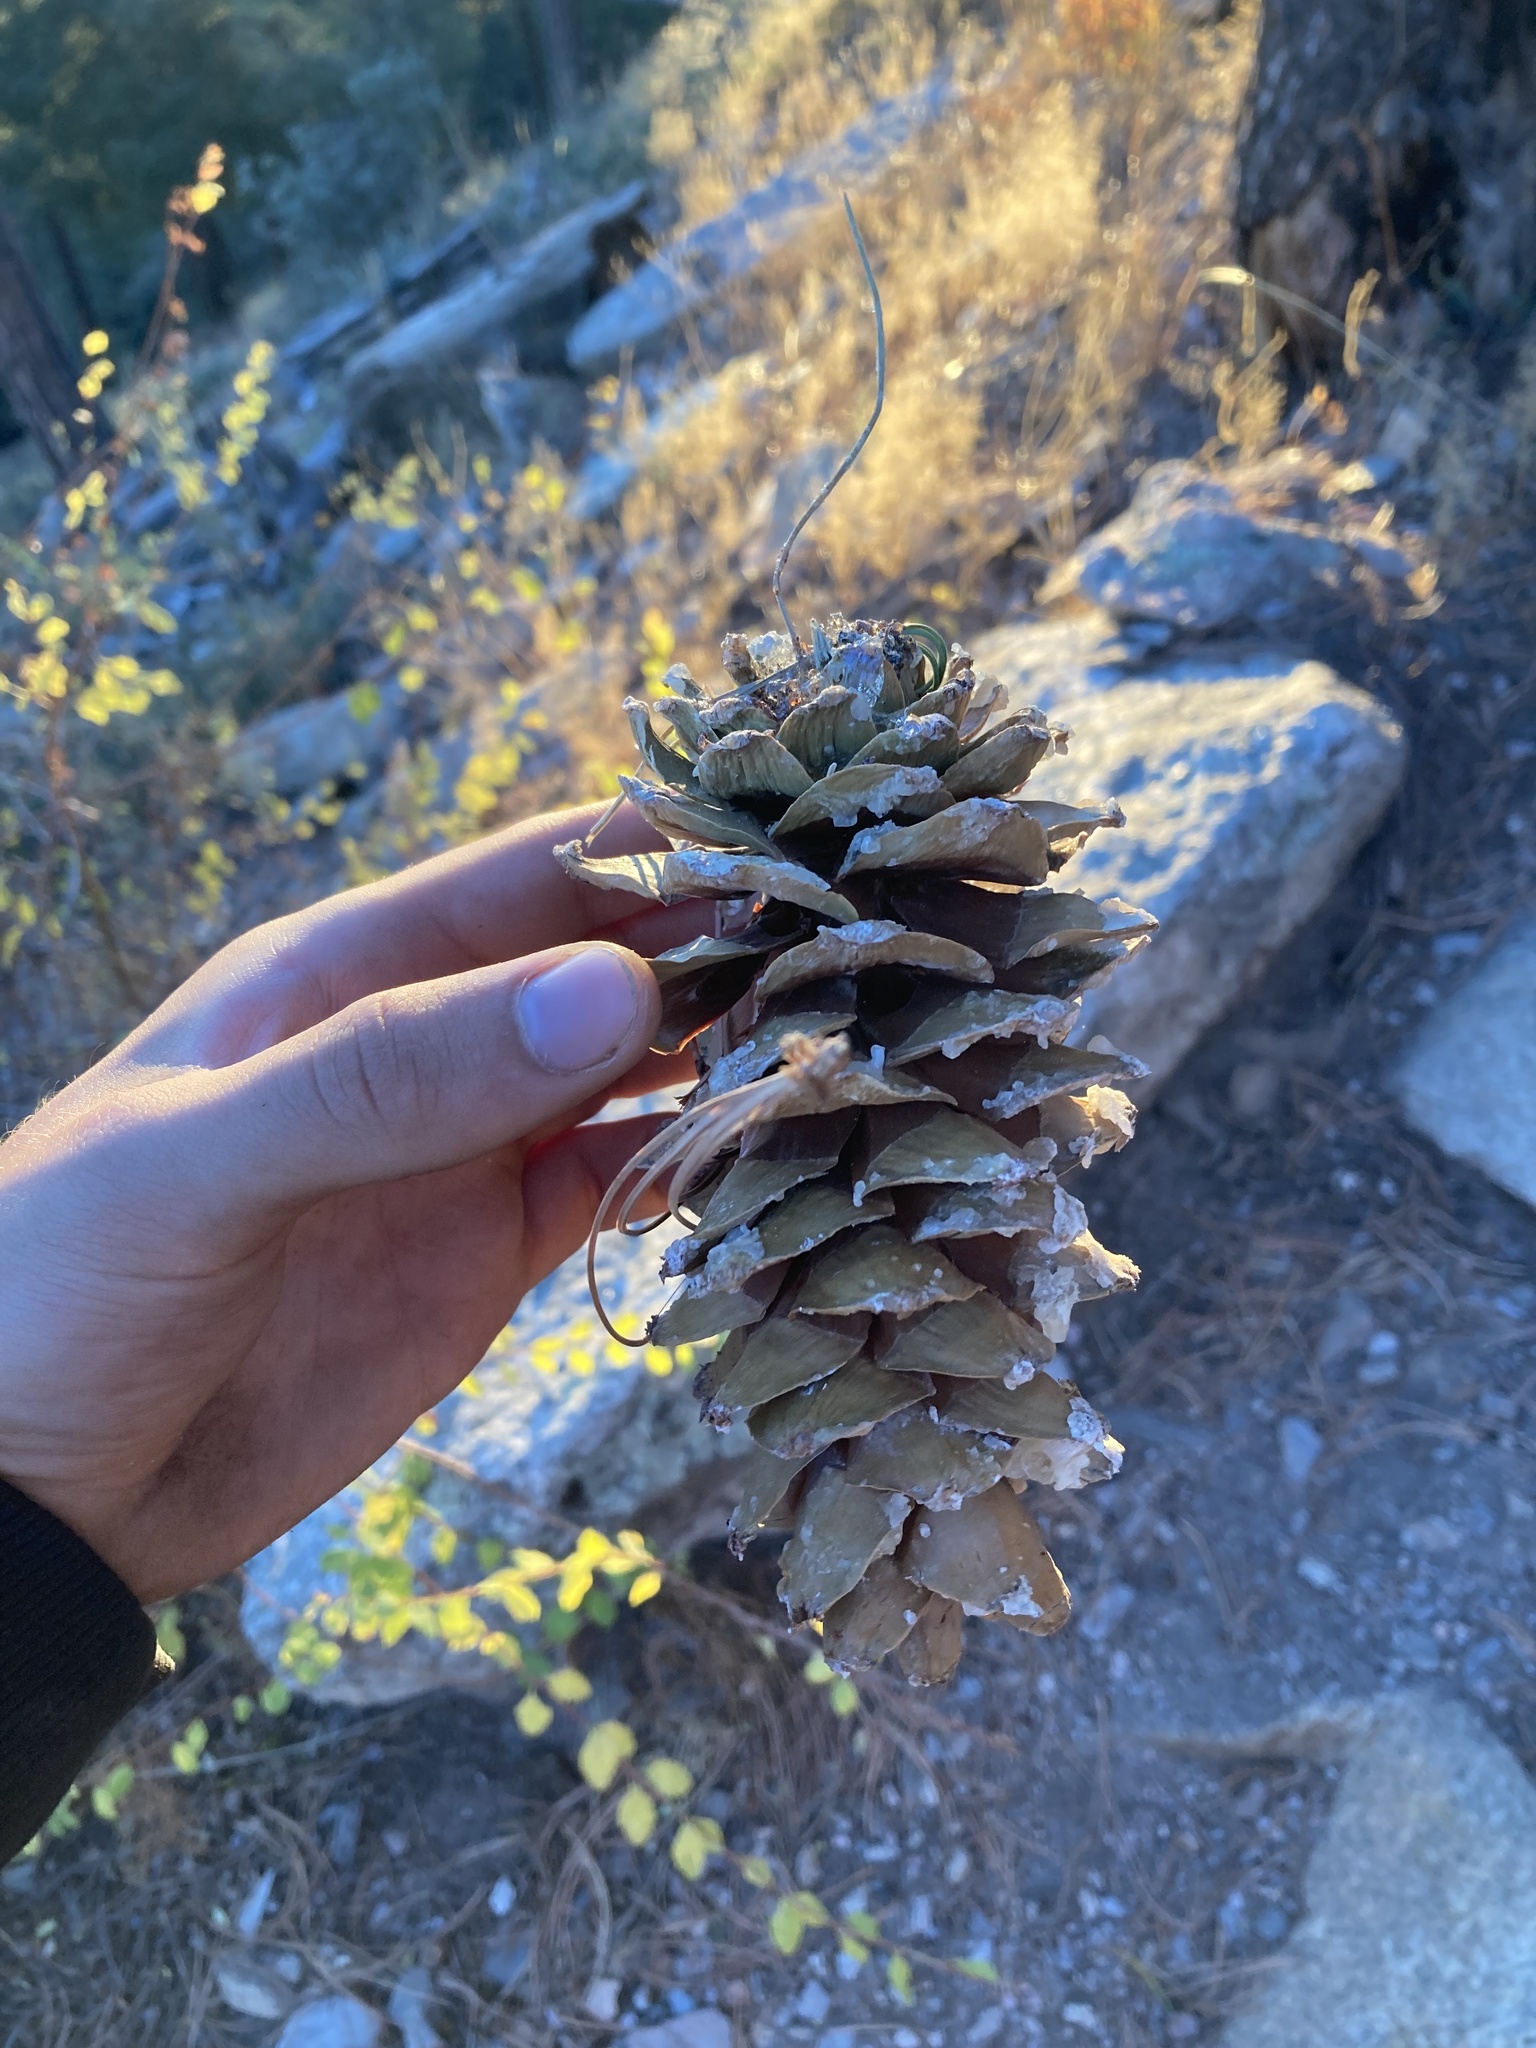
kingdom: Plantae
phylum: Tracheophyta
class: Pinopsida
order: Pinales
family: Pinaceae
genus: Pinus
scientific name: Pinus strobiformis
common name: Southwestern white pine
